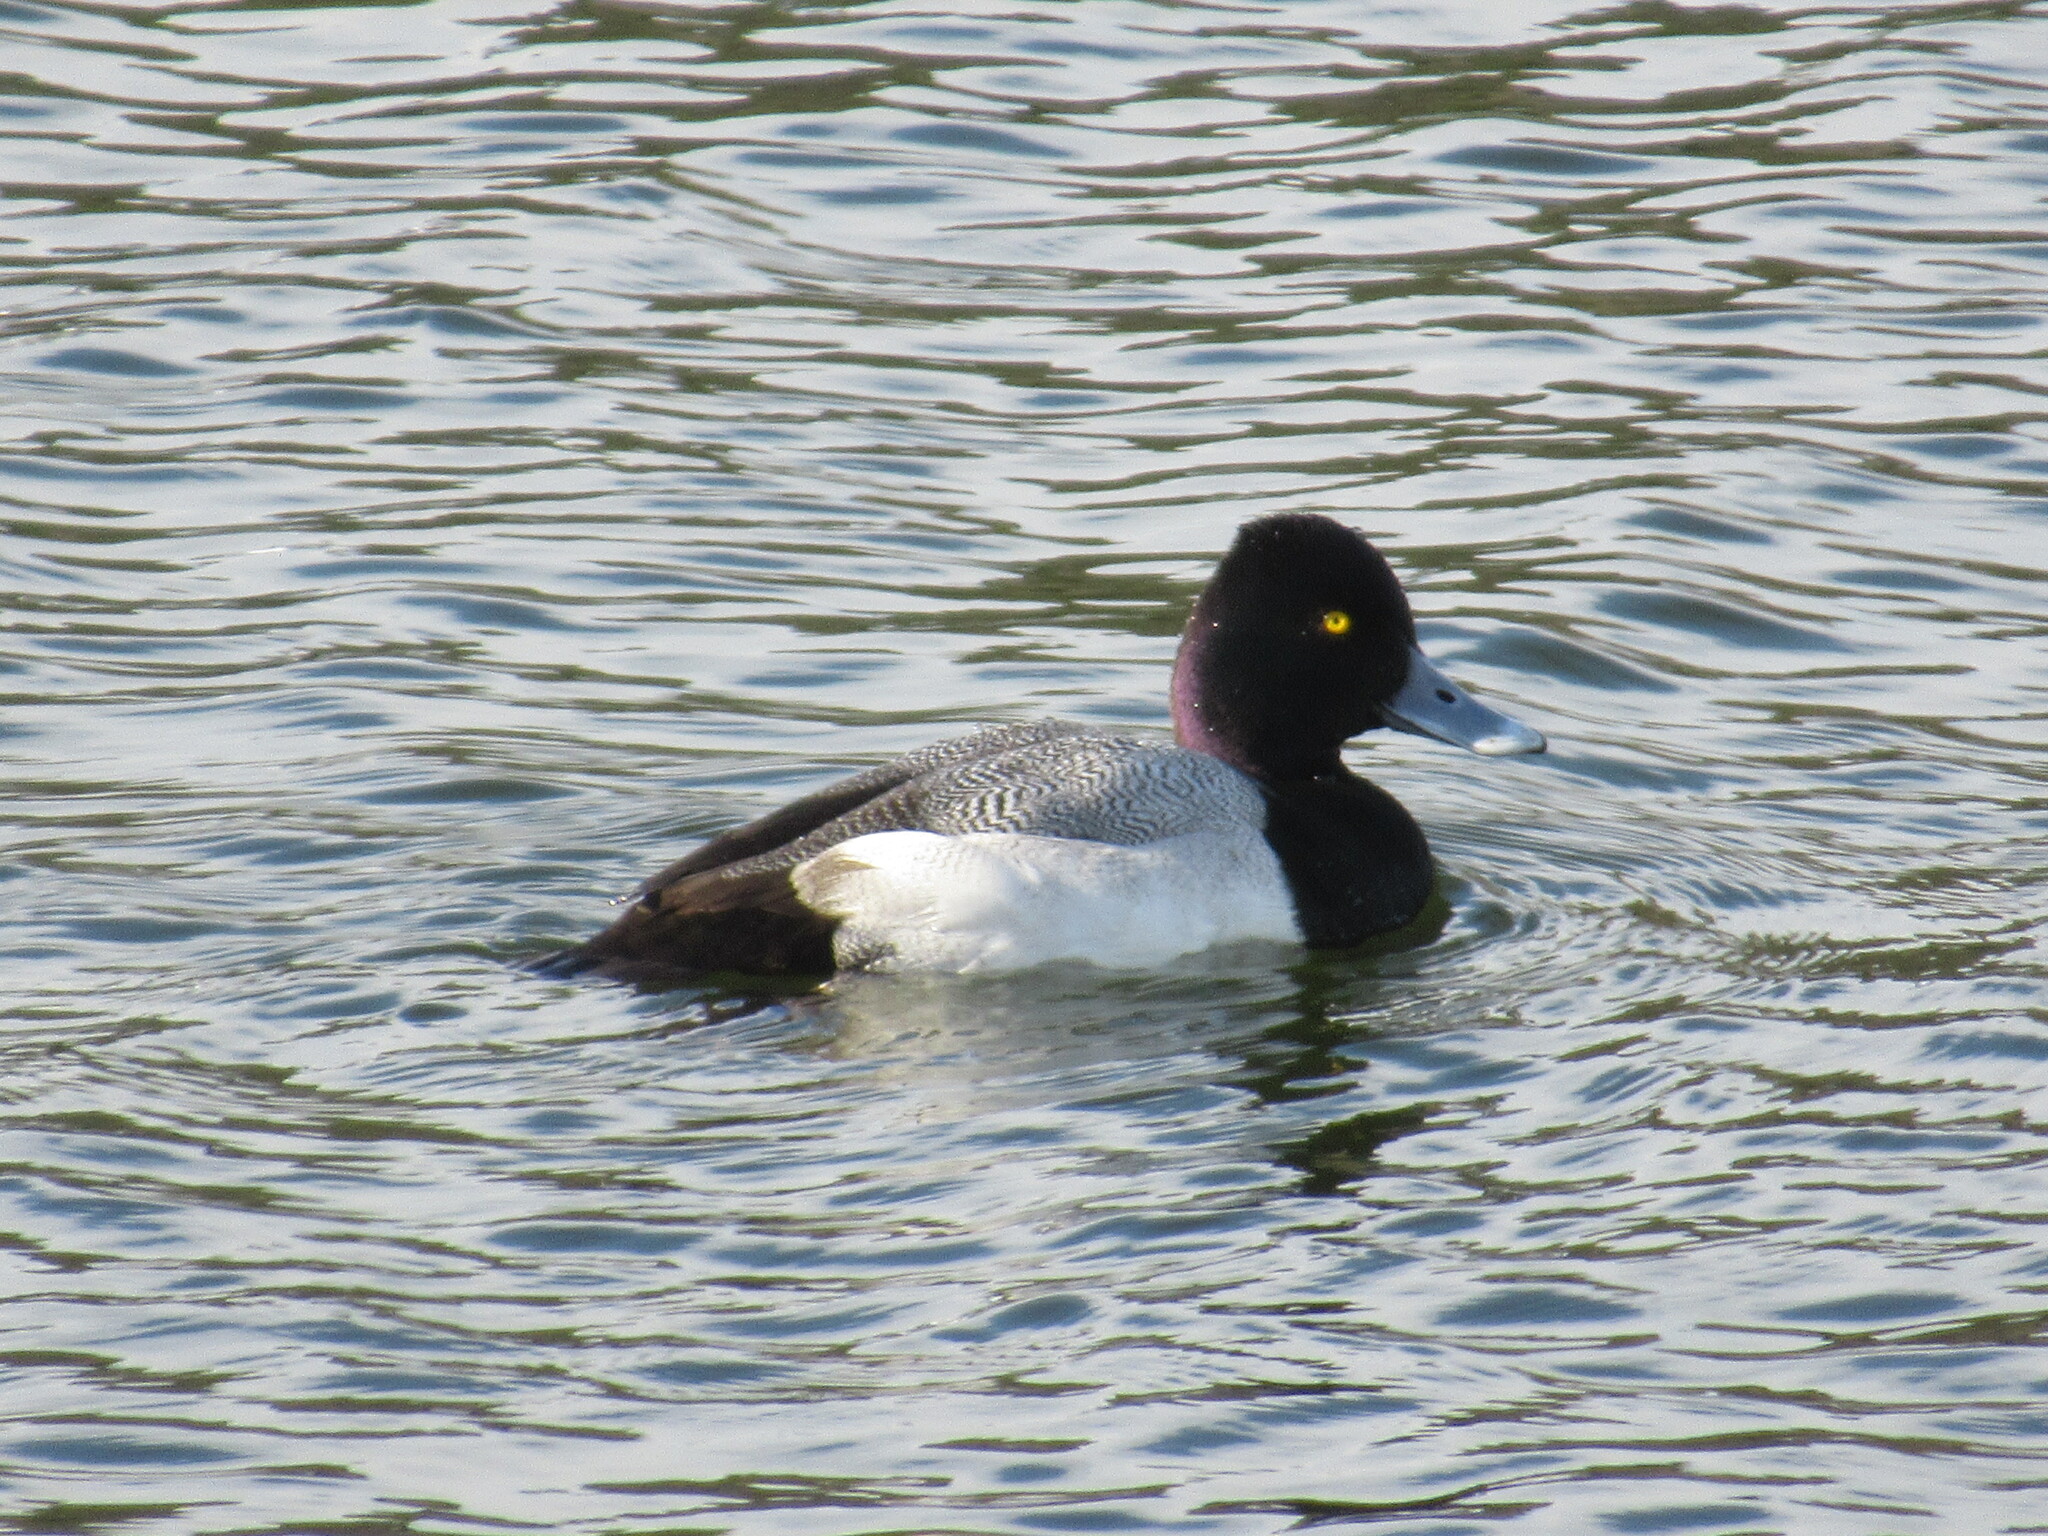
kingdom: Animalia
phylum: Chordata
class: Aves
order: Anseriformes
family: Anatidae
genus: Aythya
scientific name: Aythya affinis
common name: Lesser scaup
